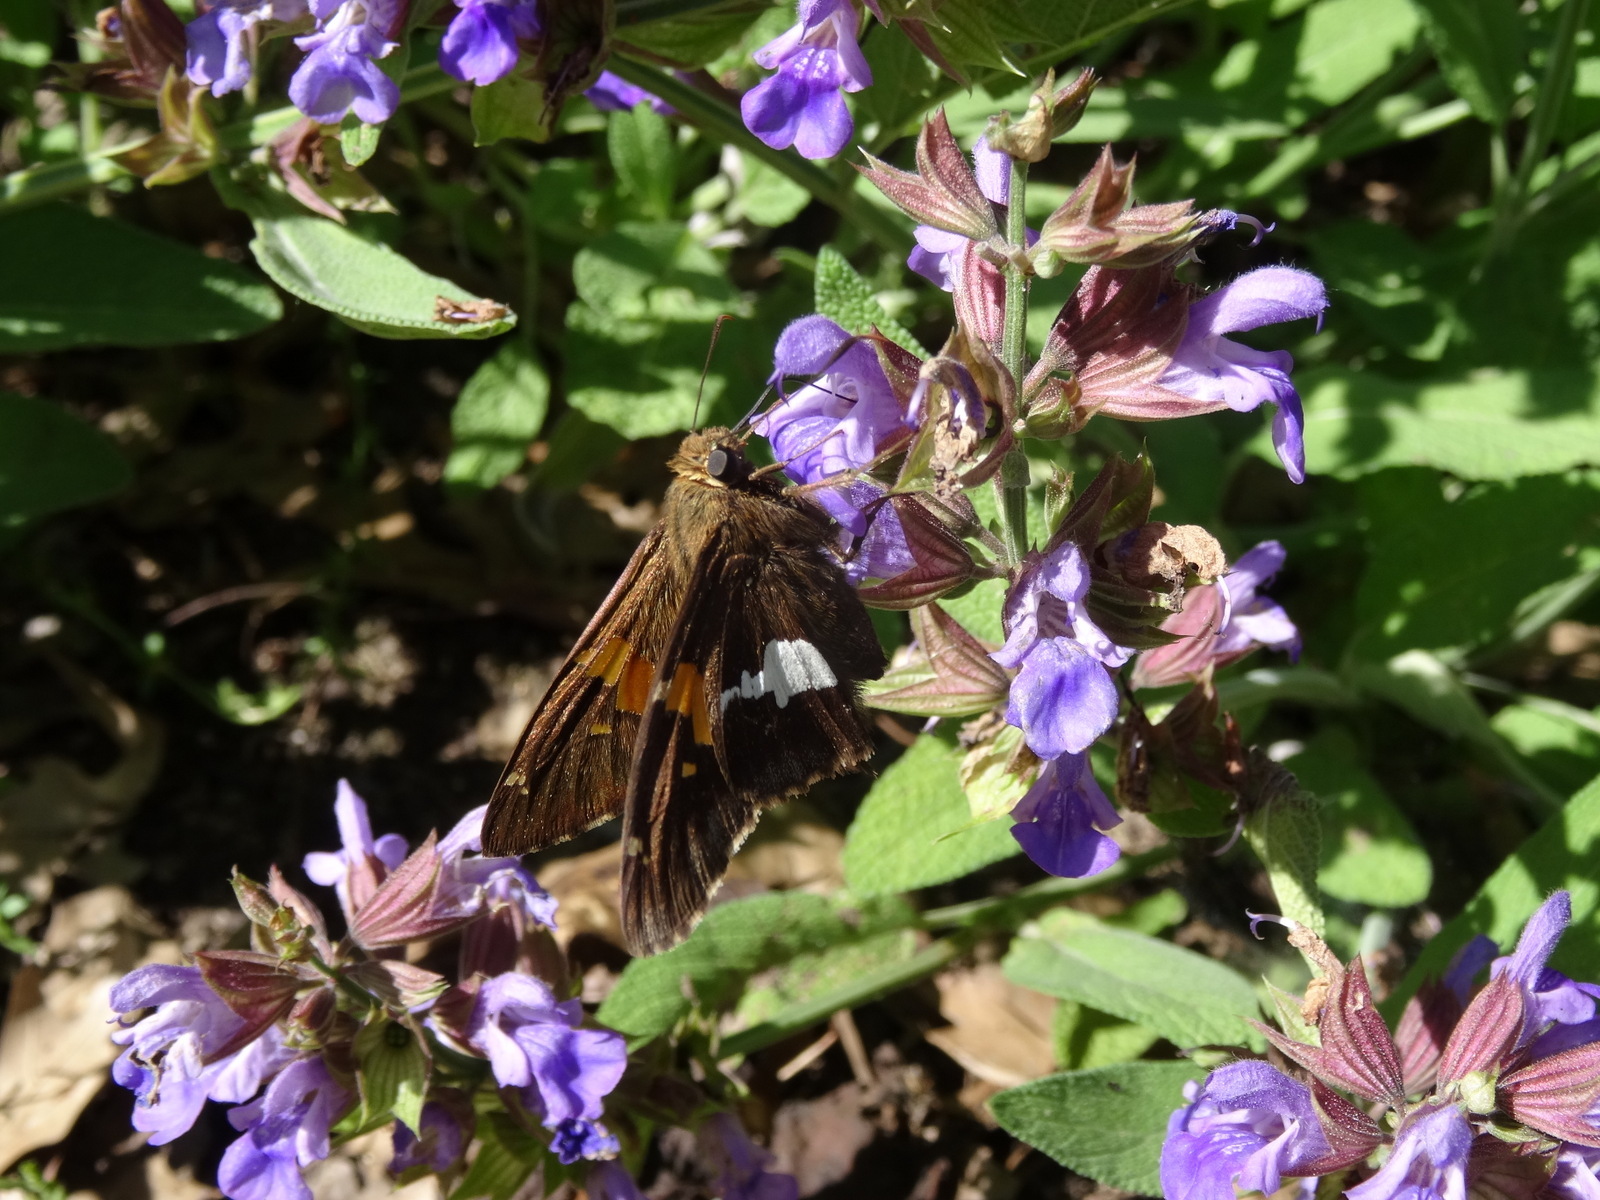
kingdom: Animalia
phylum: Arthropoda
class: Insecta
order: Lepidoptera
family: Hesperiidae
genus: Epargyreus
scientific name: Epargyreus clarus
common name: Silver-spotted skipper
